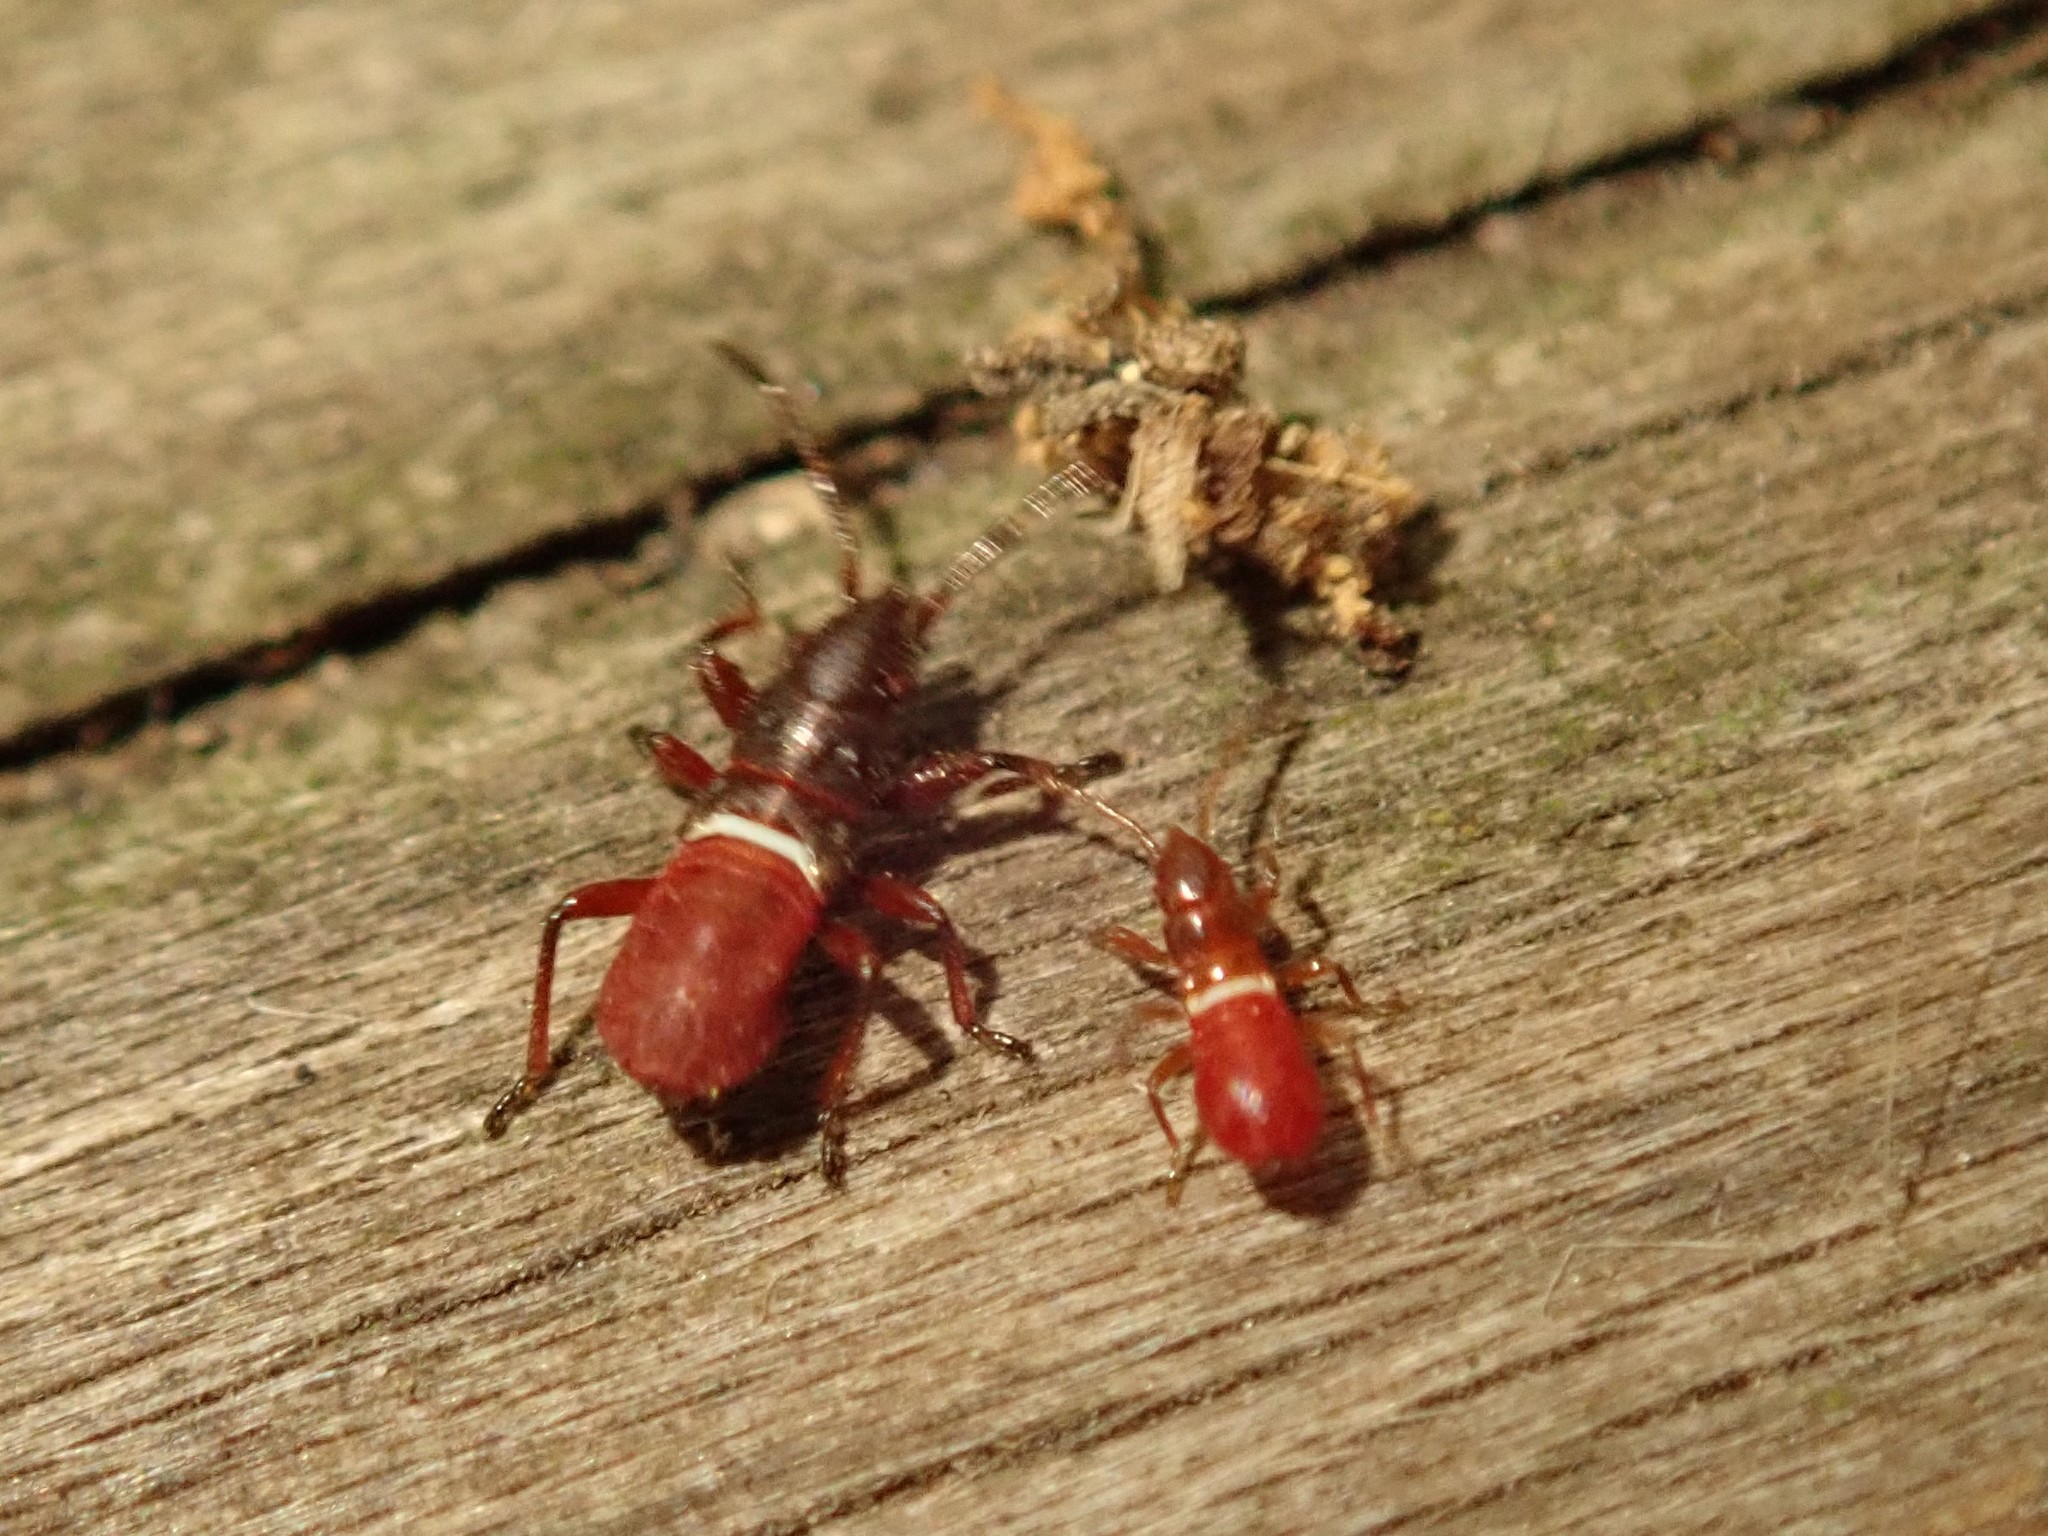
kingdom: Animalia
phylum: Arthropoda
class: Insecta
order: Hemiptera
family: Oxycarenidae
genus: Oxycarenus
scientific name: Oxycarenus lavaterae
